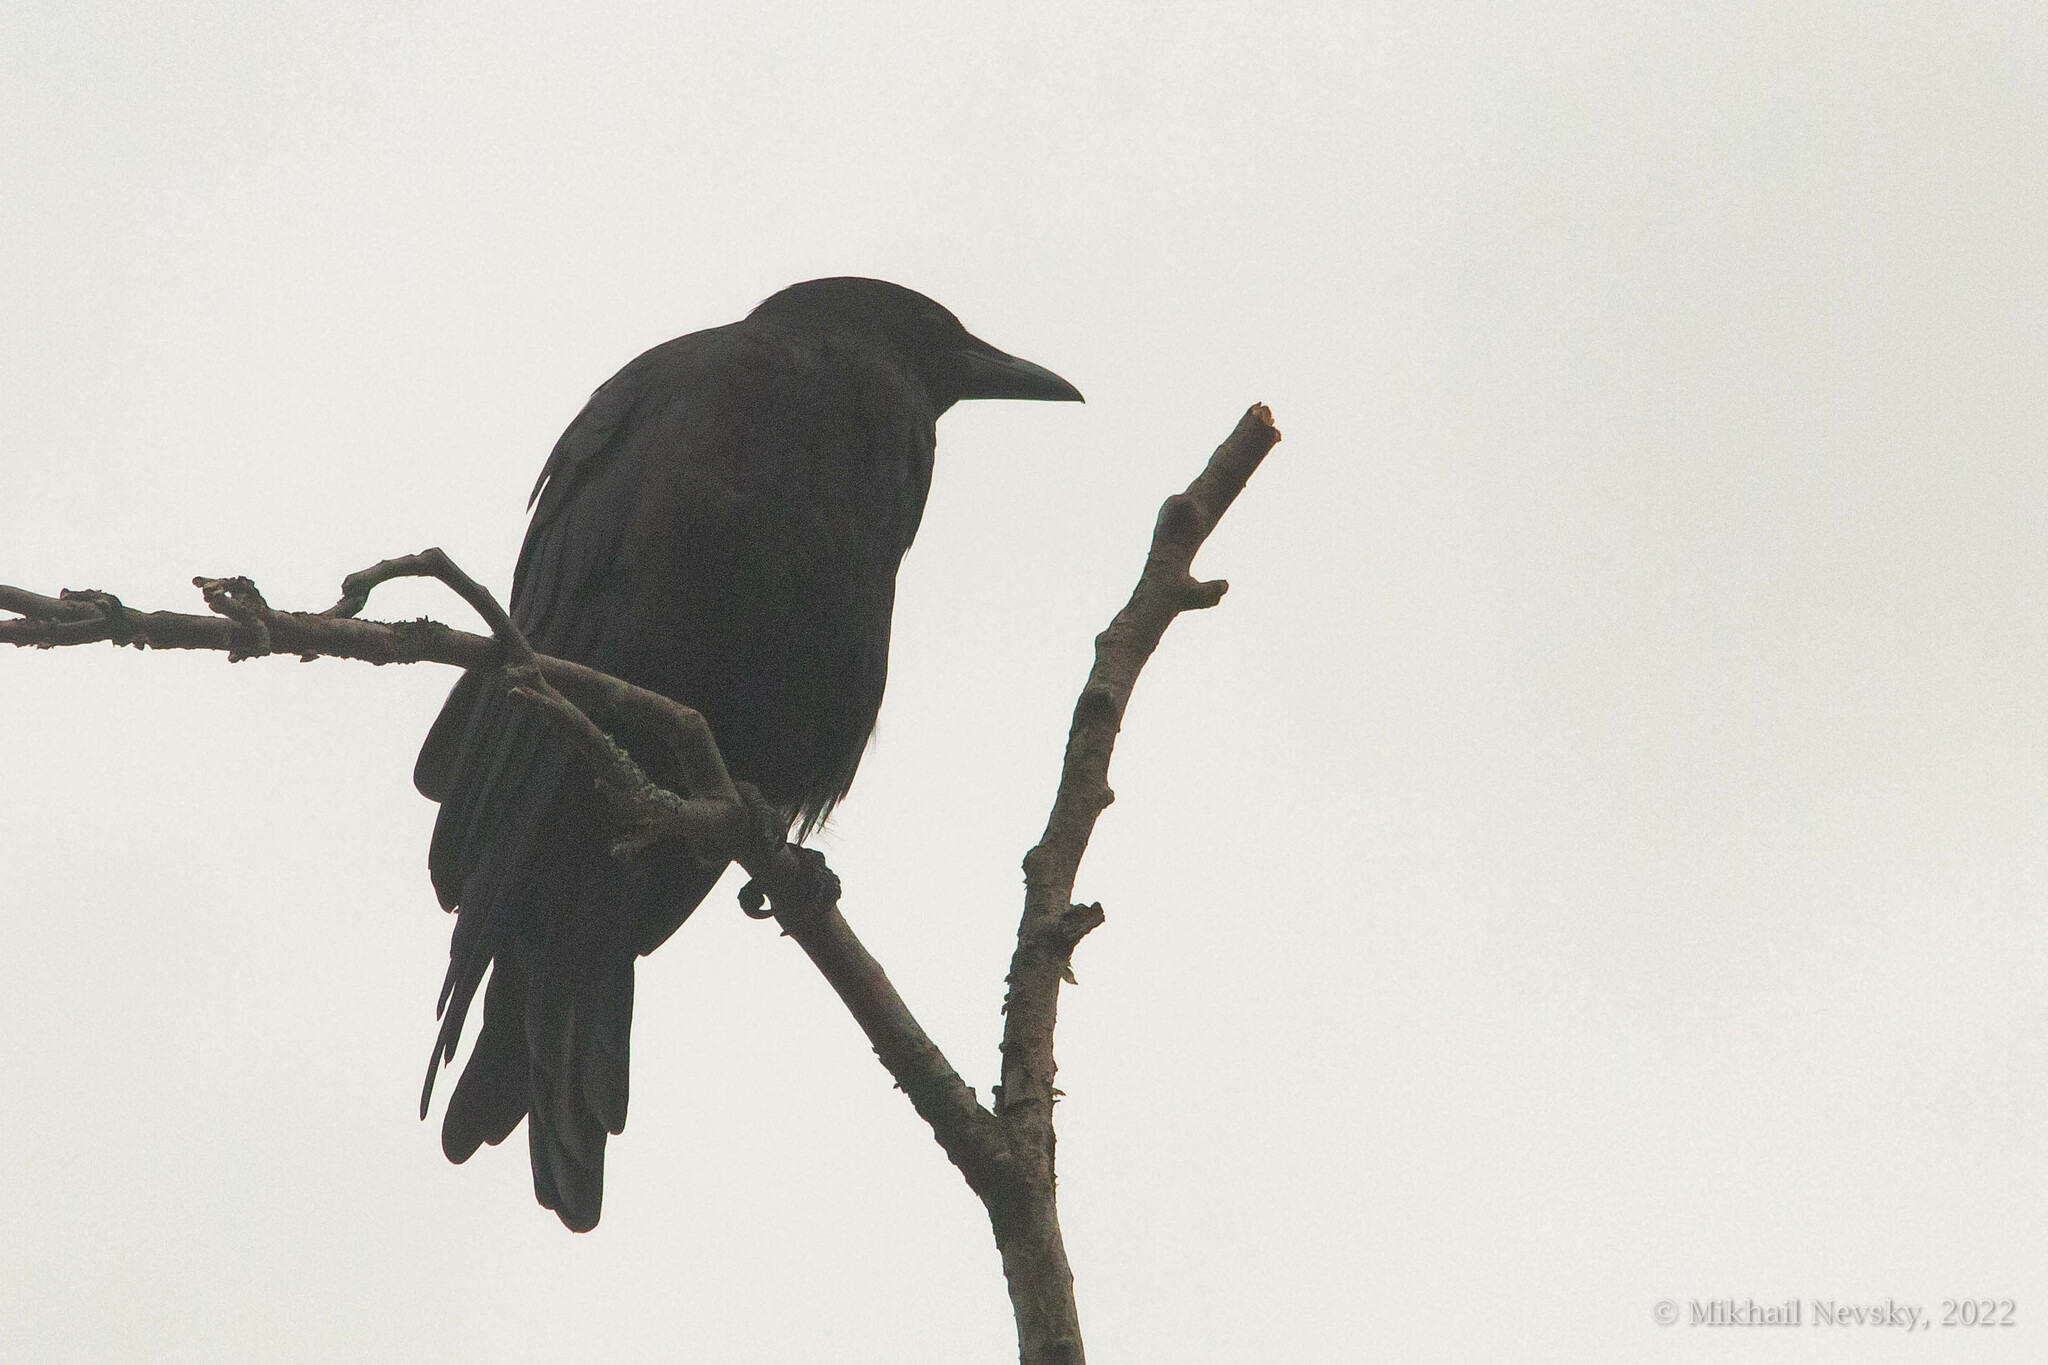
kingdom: Animalia
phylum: Chordata
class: Aves
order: Passeriformes
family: Corvidae
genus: Corvus
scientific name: Corvus corone
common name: Carrion crow
